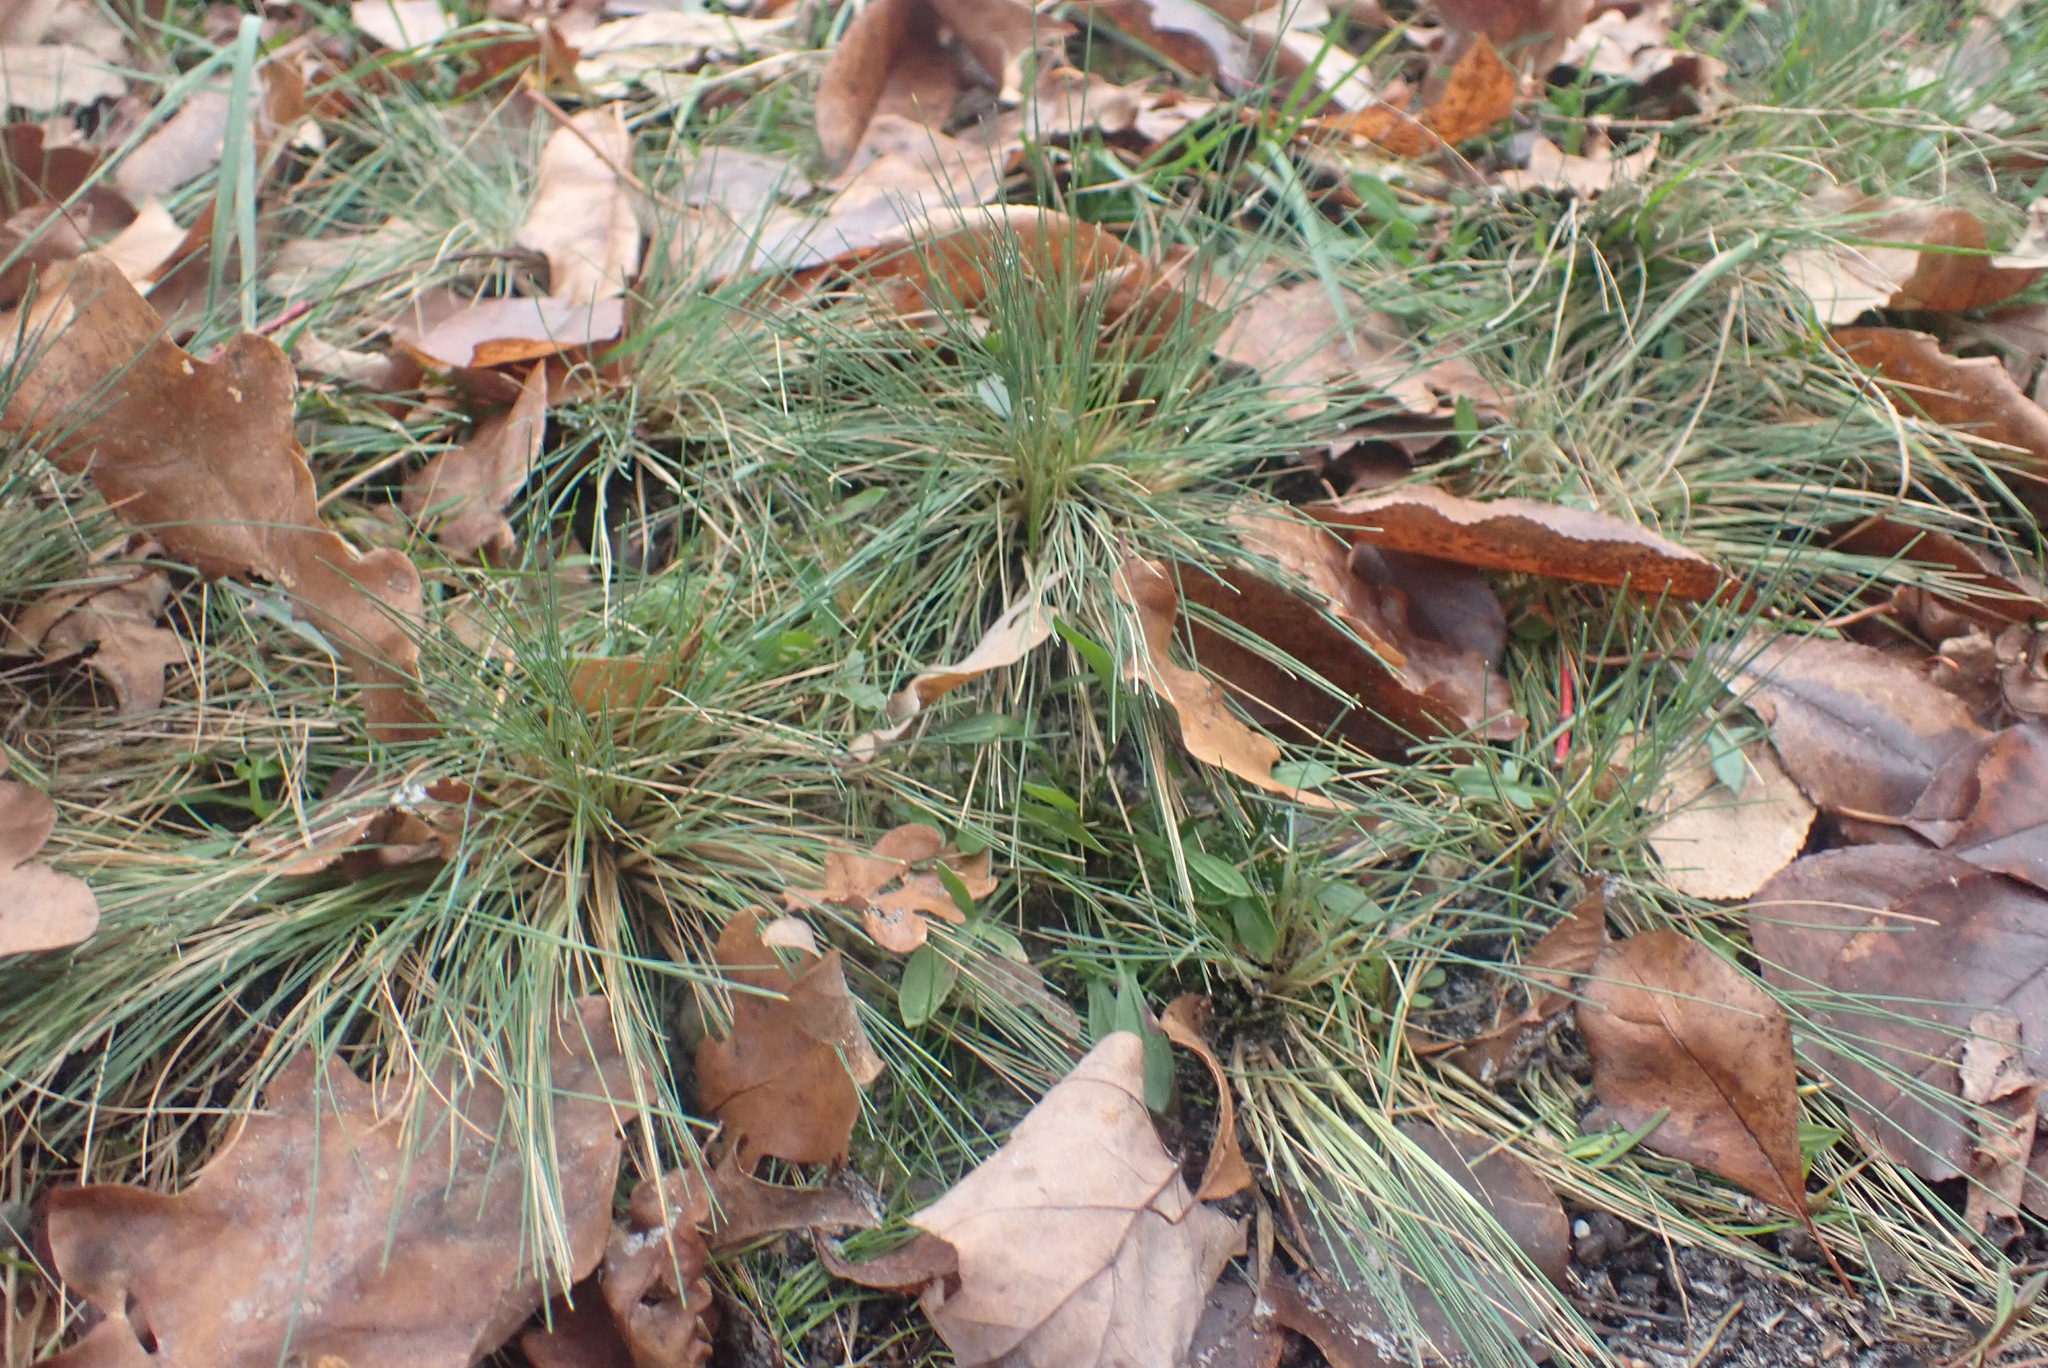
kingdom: Plantae
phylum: Tracheophyta
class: Liliopsida
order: Poales
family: Poaceae
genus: Corynephorus
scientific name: Corynephorus canescens
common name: Grey hair-grass
